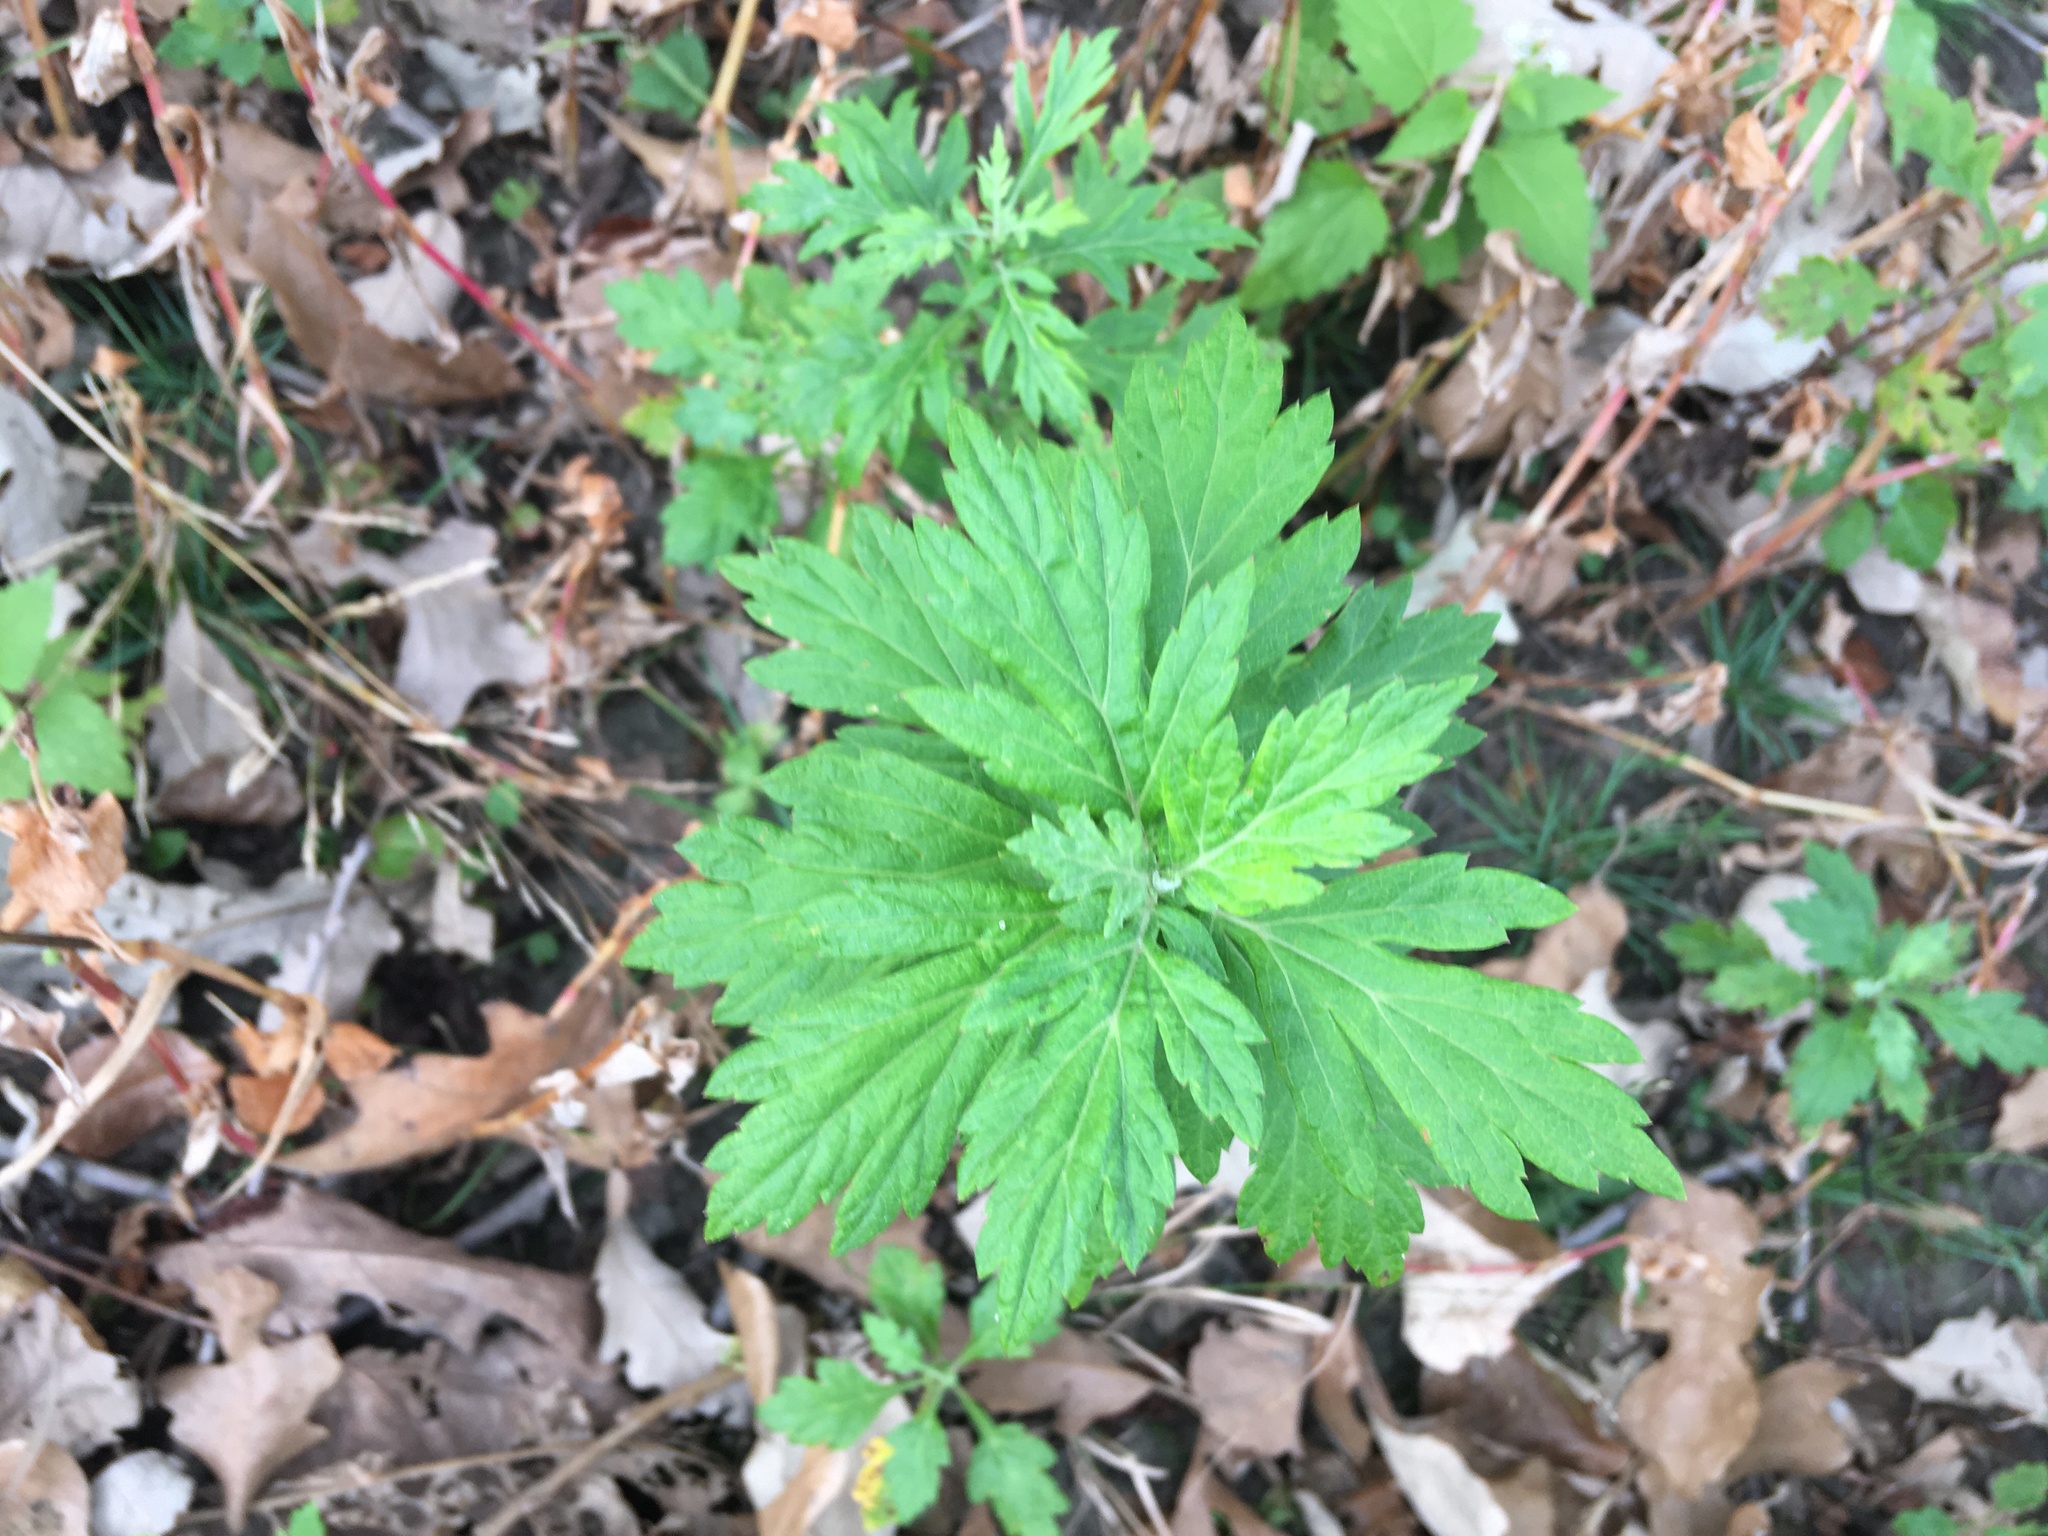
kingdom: Plantae
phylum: Tracheophyta
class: Magnoliopsida
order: Asterales
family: Asteraceae
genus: Artemisia
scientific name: Artemisia vulgaris
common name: Mugwort
